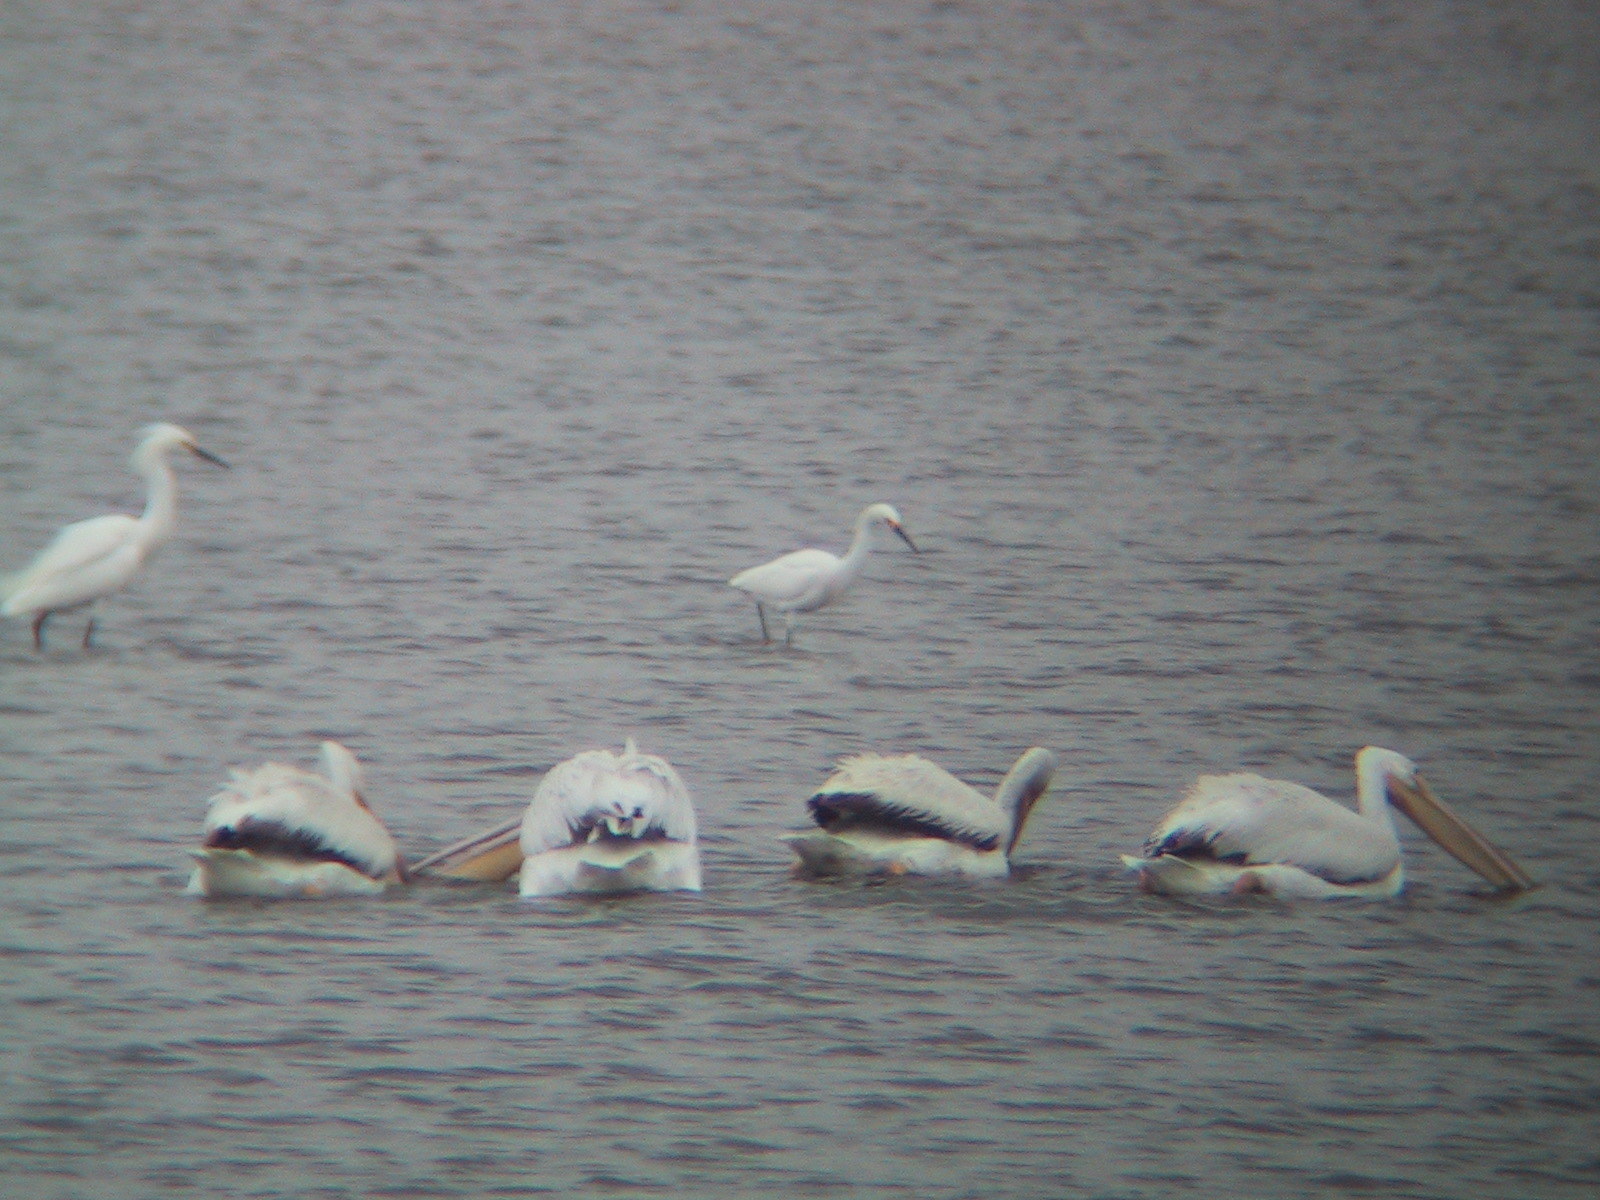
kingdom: Animalia
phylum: Chordata
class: Aves
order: Pelecaniformes
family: Ardeidae
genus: Egretta
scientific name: Egretta thula
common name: Snowy egret
